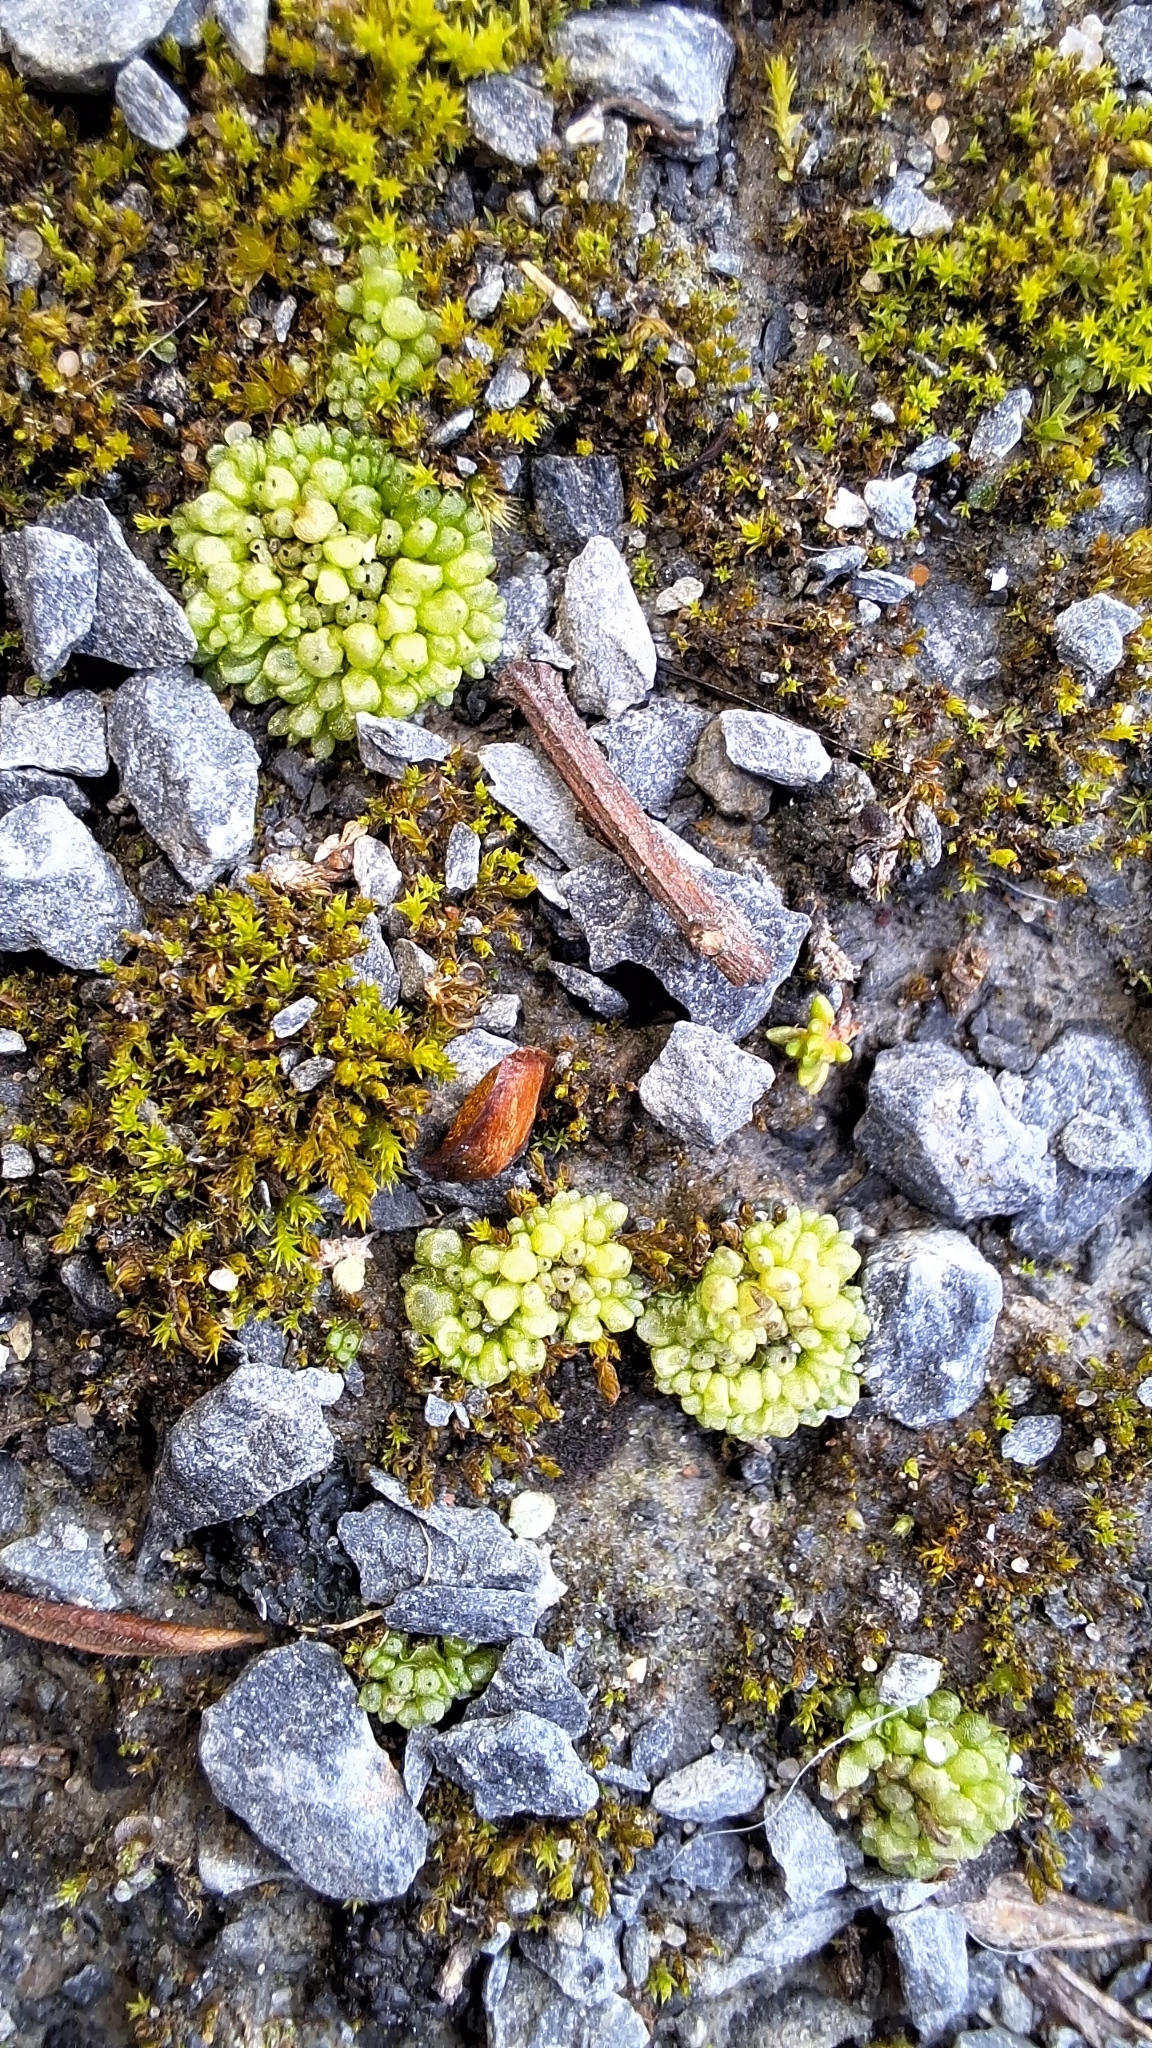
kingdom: Plantae
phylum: Marchantiophyta
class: Marchantiopsida
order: Sphaerocarpales
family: Sphaerocarpaceae
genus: Sphaerocarpos
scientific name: Sphaerocarpos texanus
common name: Texas balloonwort
